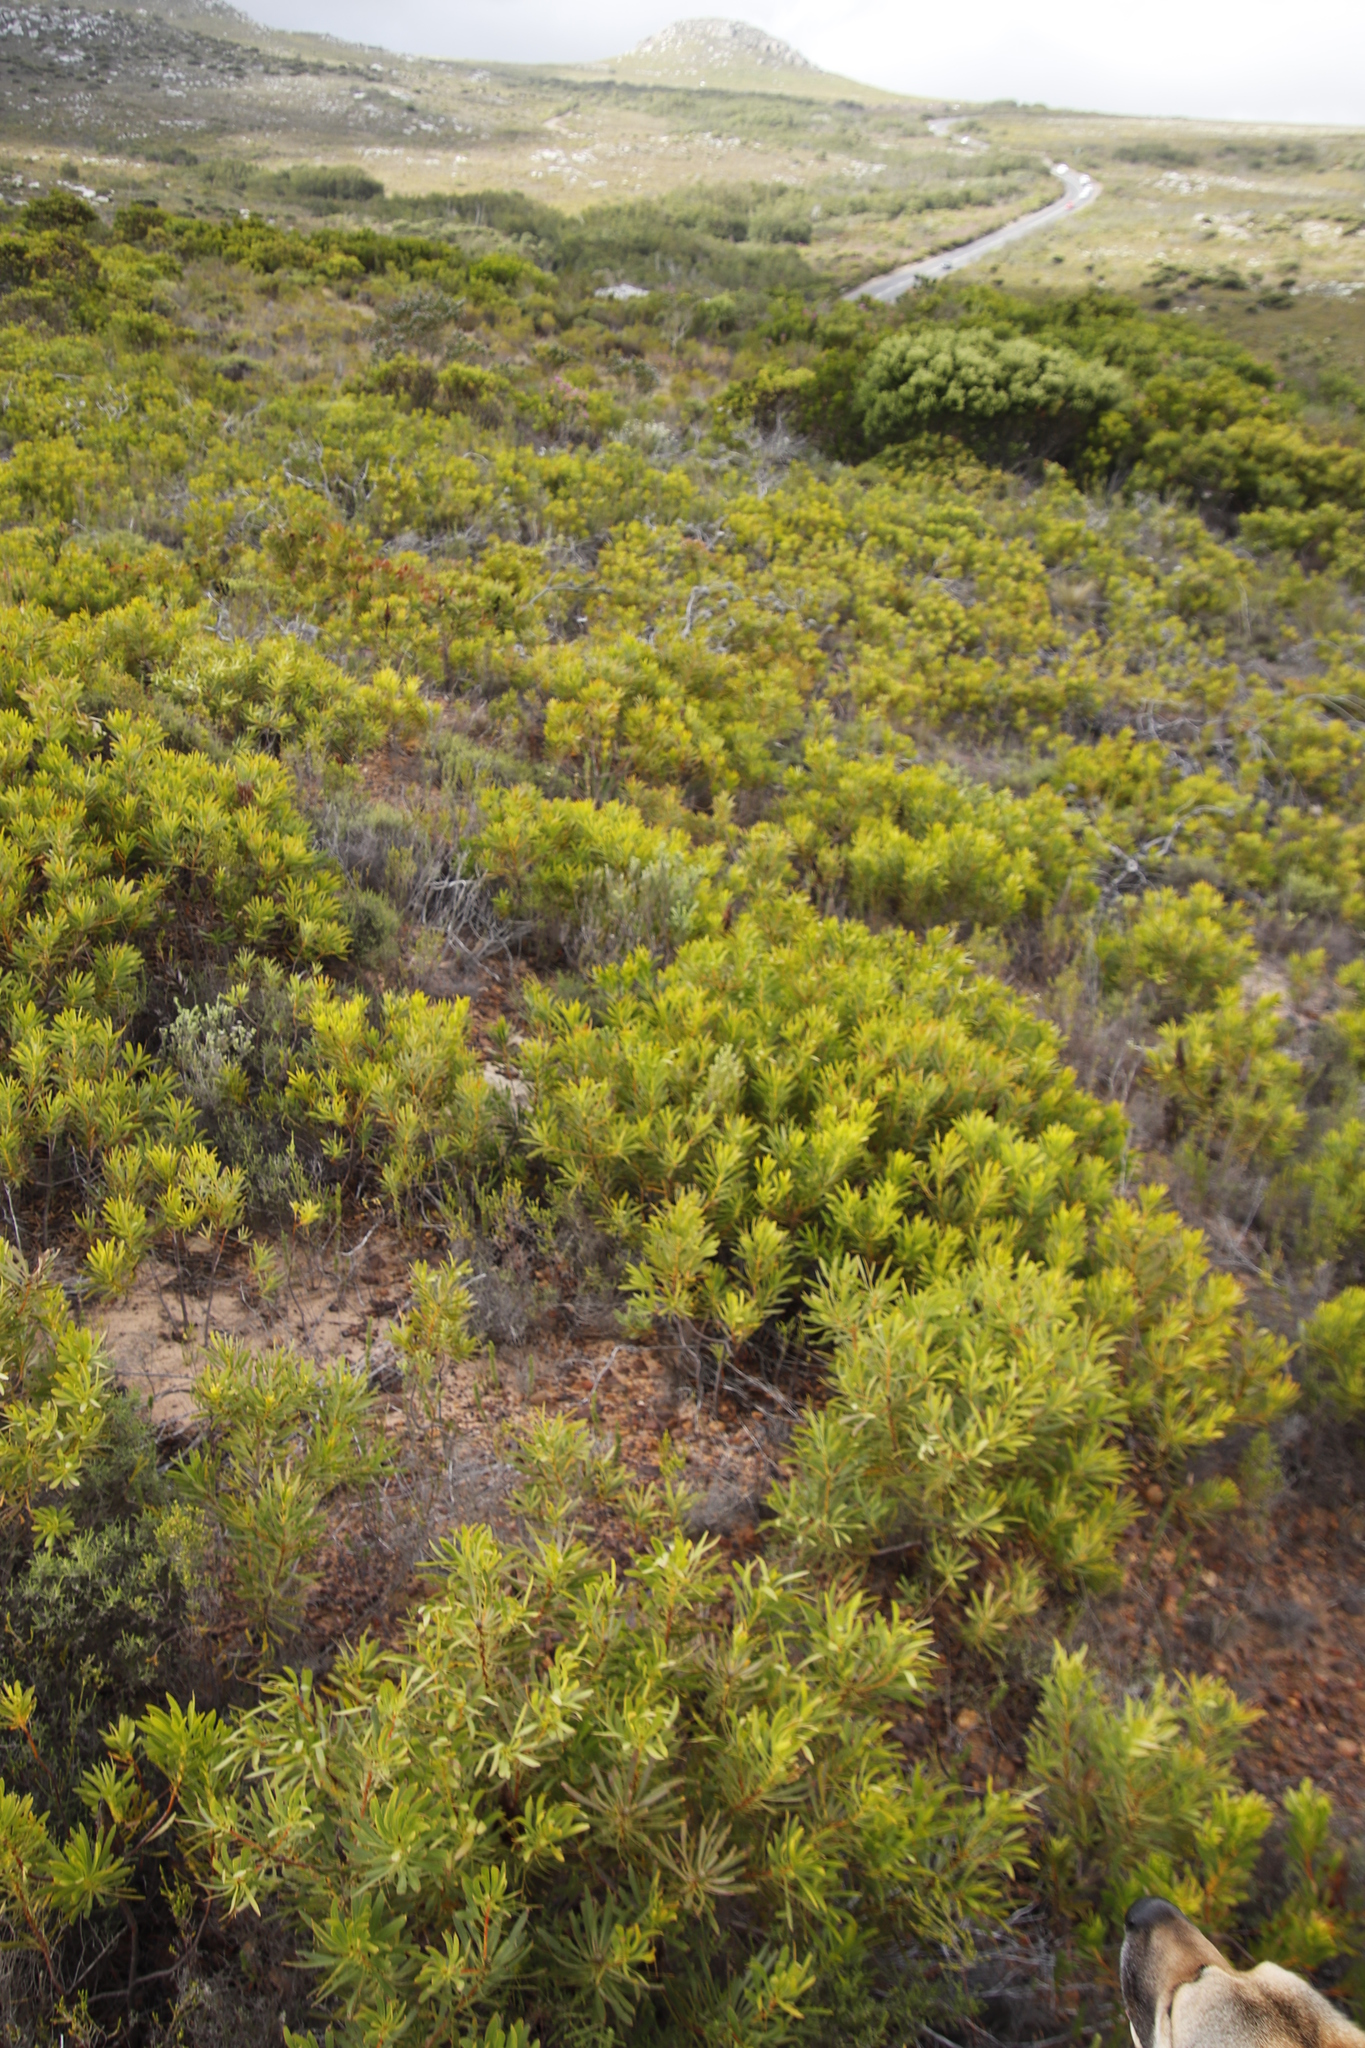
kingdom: Plantae
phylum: Tracheophyta
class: Magnoliopsida
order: Proteales
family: Proteaceae
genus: Protea
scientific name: Protea repens
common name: Sugarbush
